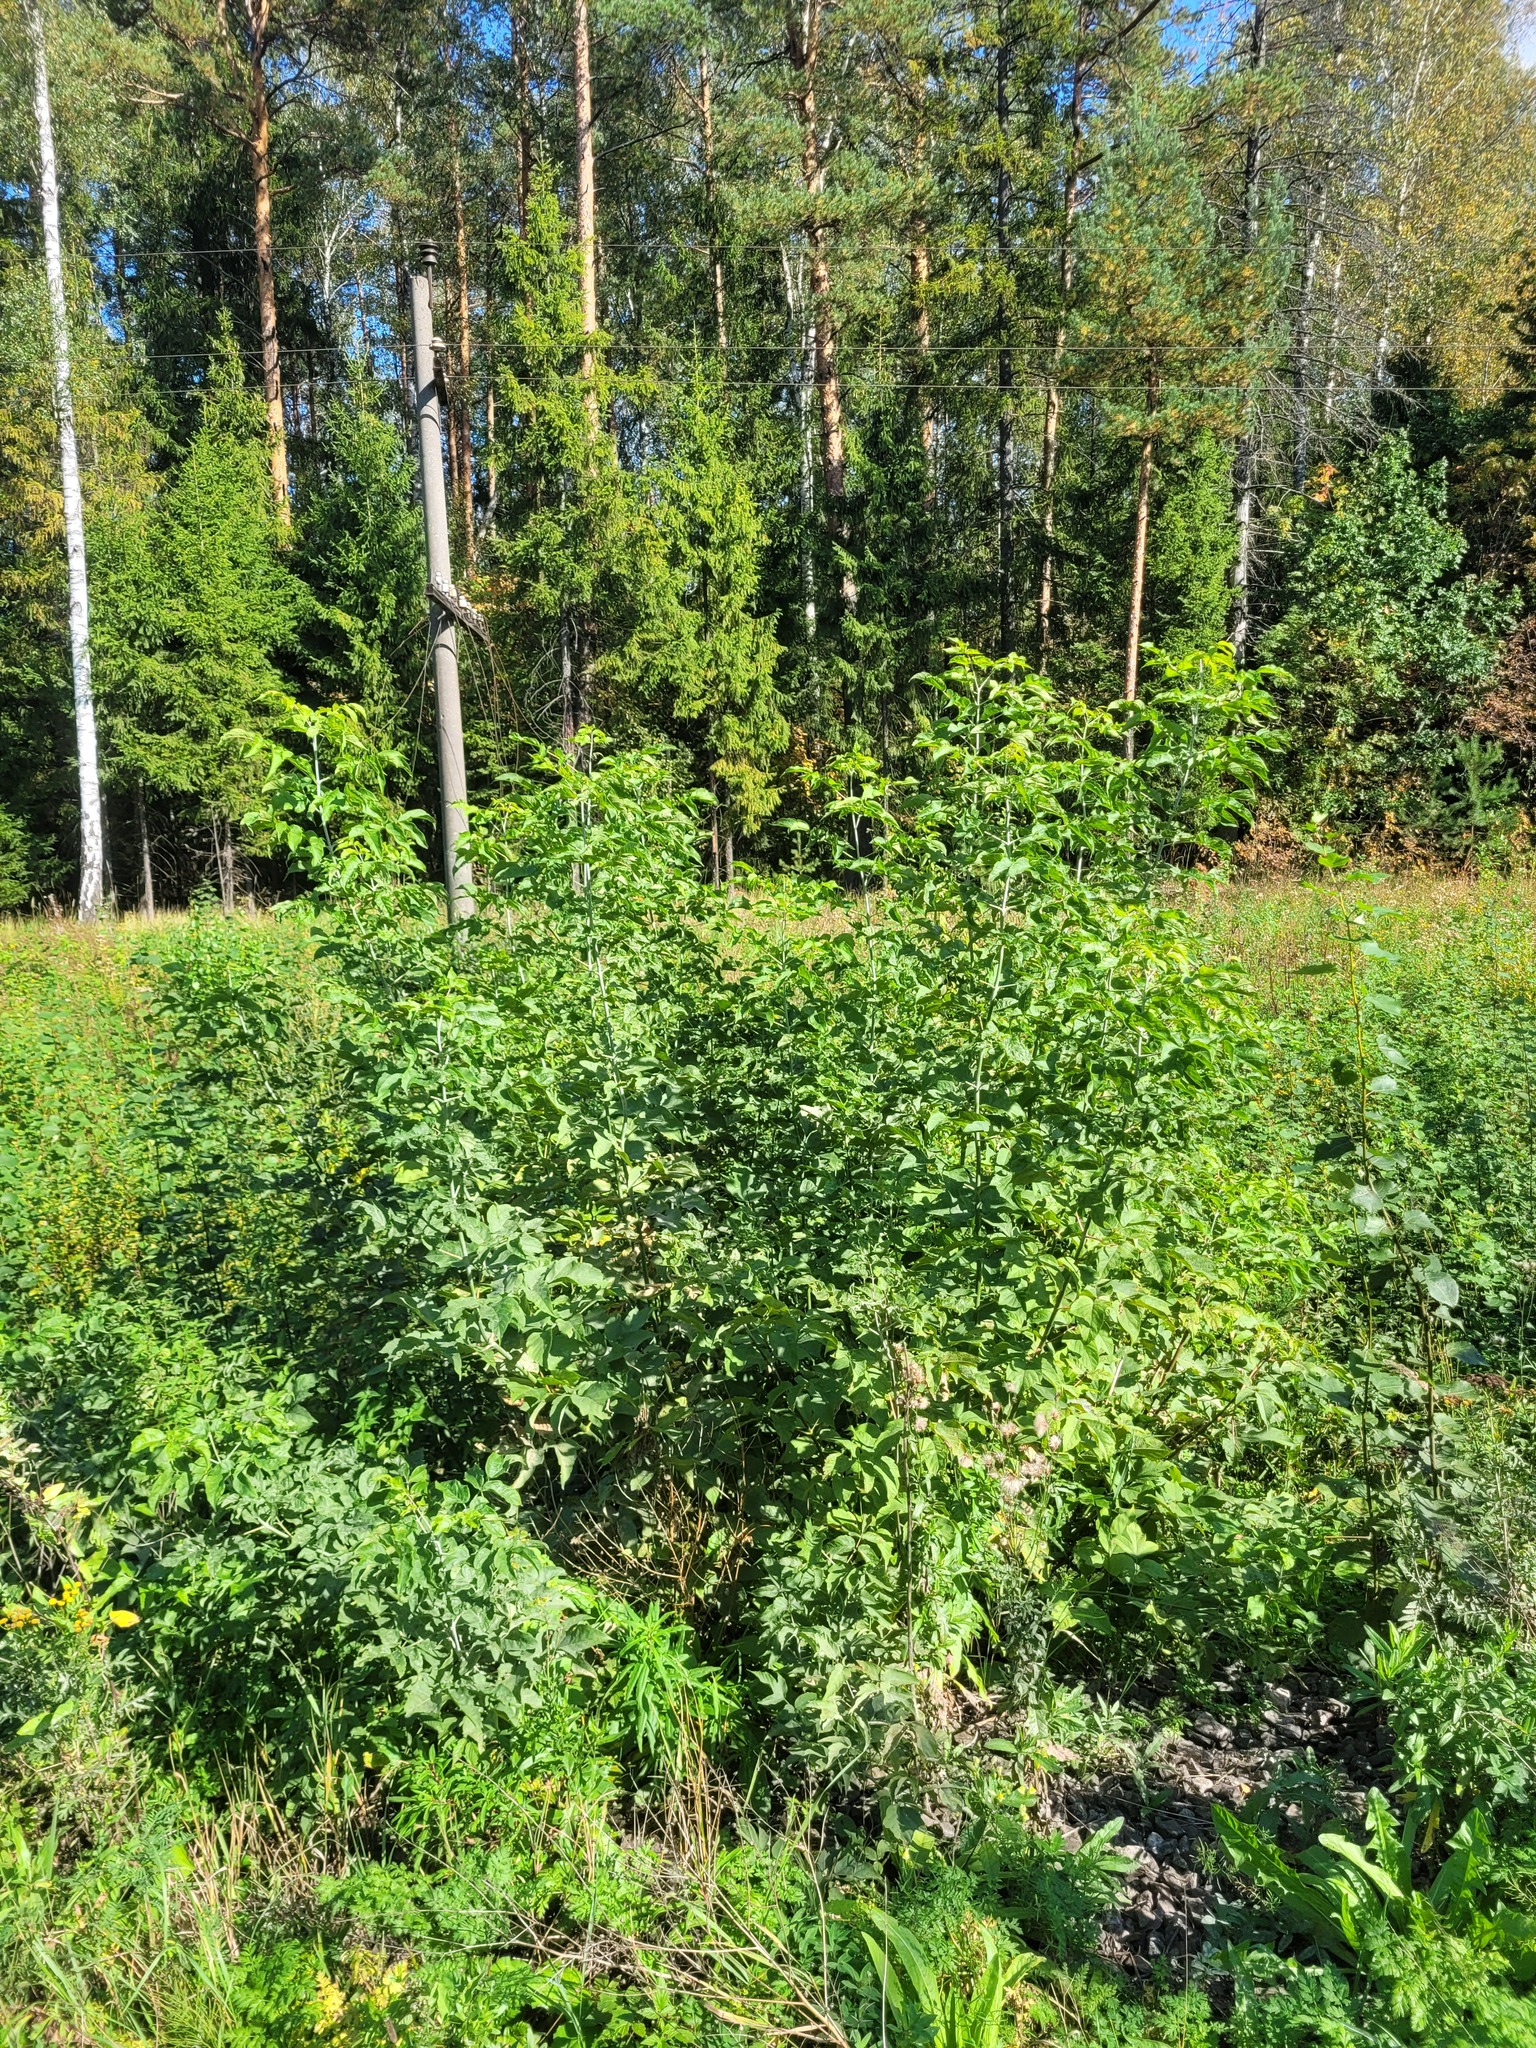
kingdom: Plantae
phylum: Tracheophyta
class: Magnoliopsida
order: Sapindales
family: Sapindaceae
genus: Acer
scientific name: Acer negundo
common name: Ashleaf maple
